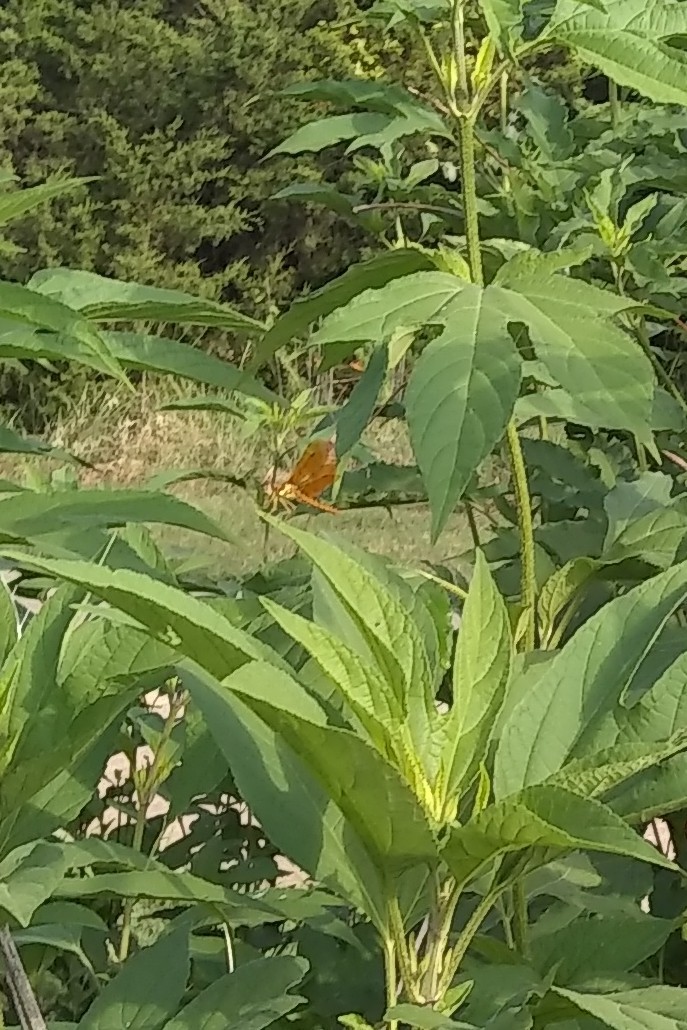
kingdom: Animalia
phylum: Arthropoda
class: Insecta
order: Odonata
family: Libellulidae
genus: Perithemis
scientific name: Perithemis tenera
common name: Eastern amberwing
